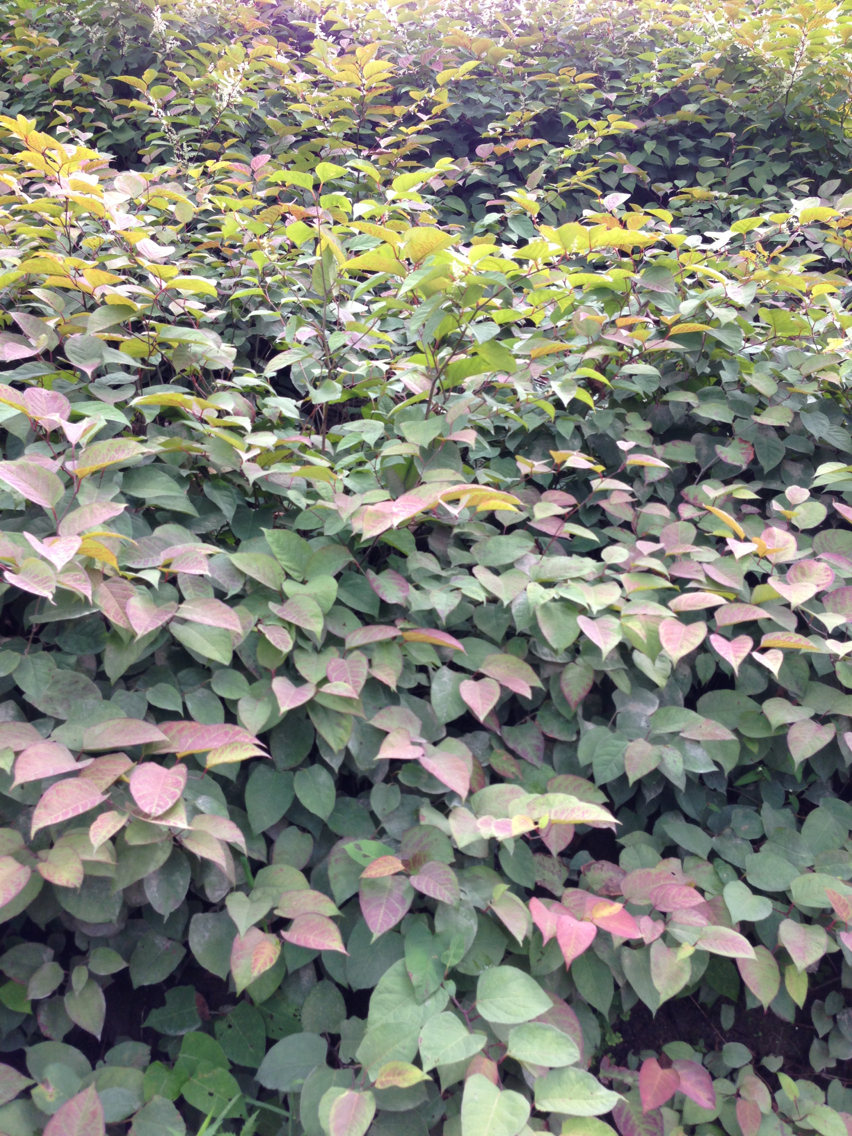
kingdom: Plantae
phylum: Tracheophyta
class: Magnoliopsida
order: Caryophyllales
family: Polygonaceae
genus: Reynoutria
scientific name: Reynoutria japonica
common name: Japanese knotweed
